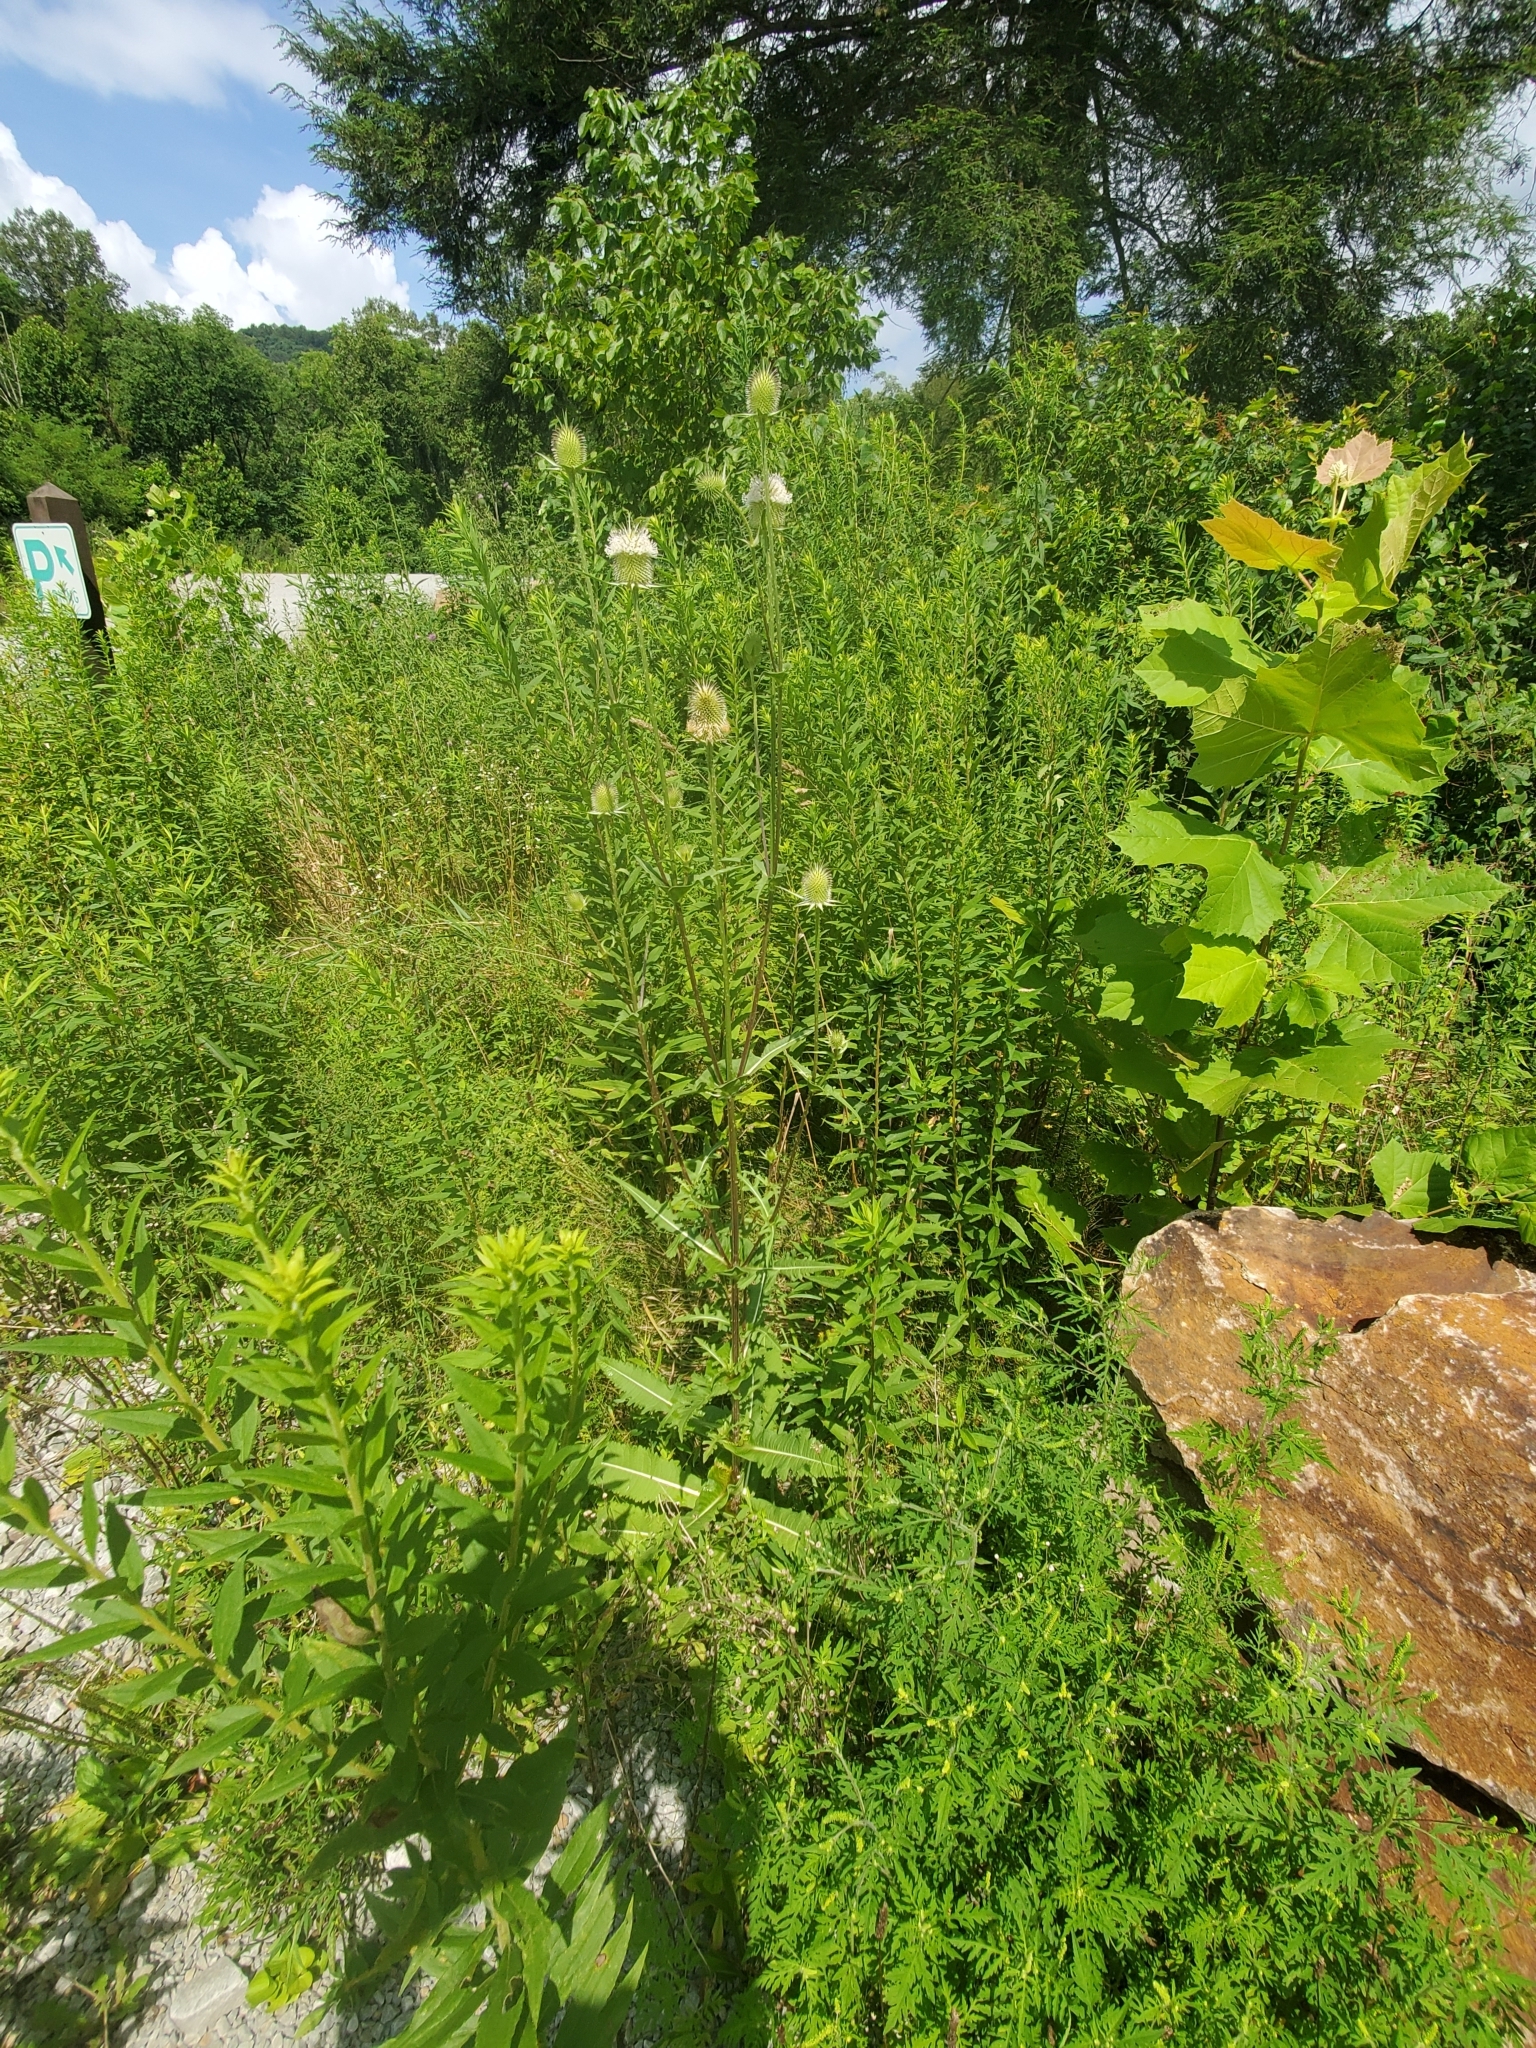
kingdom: Plantae
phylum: Tracheophyta
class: Magnoliopsida
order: Dipsacales
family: Caprifoliaceae
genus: Dipsacus
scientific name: Dipsacus laciniatus
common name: Cut-leaved teasel
